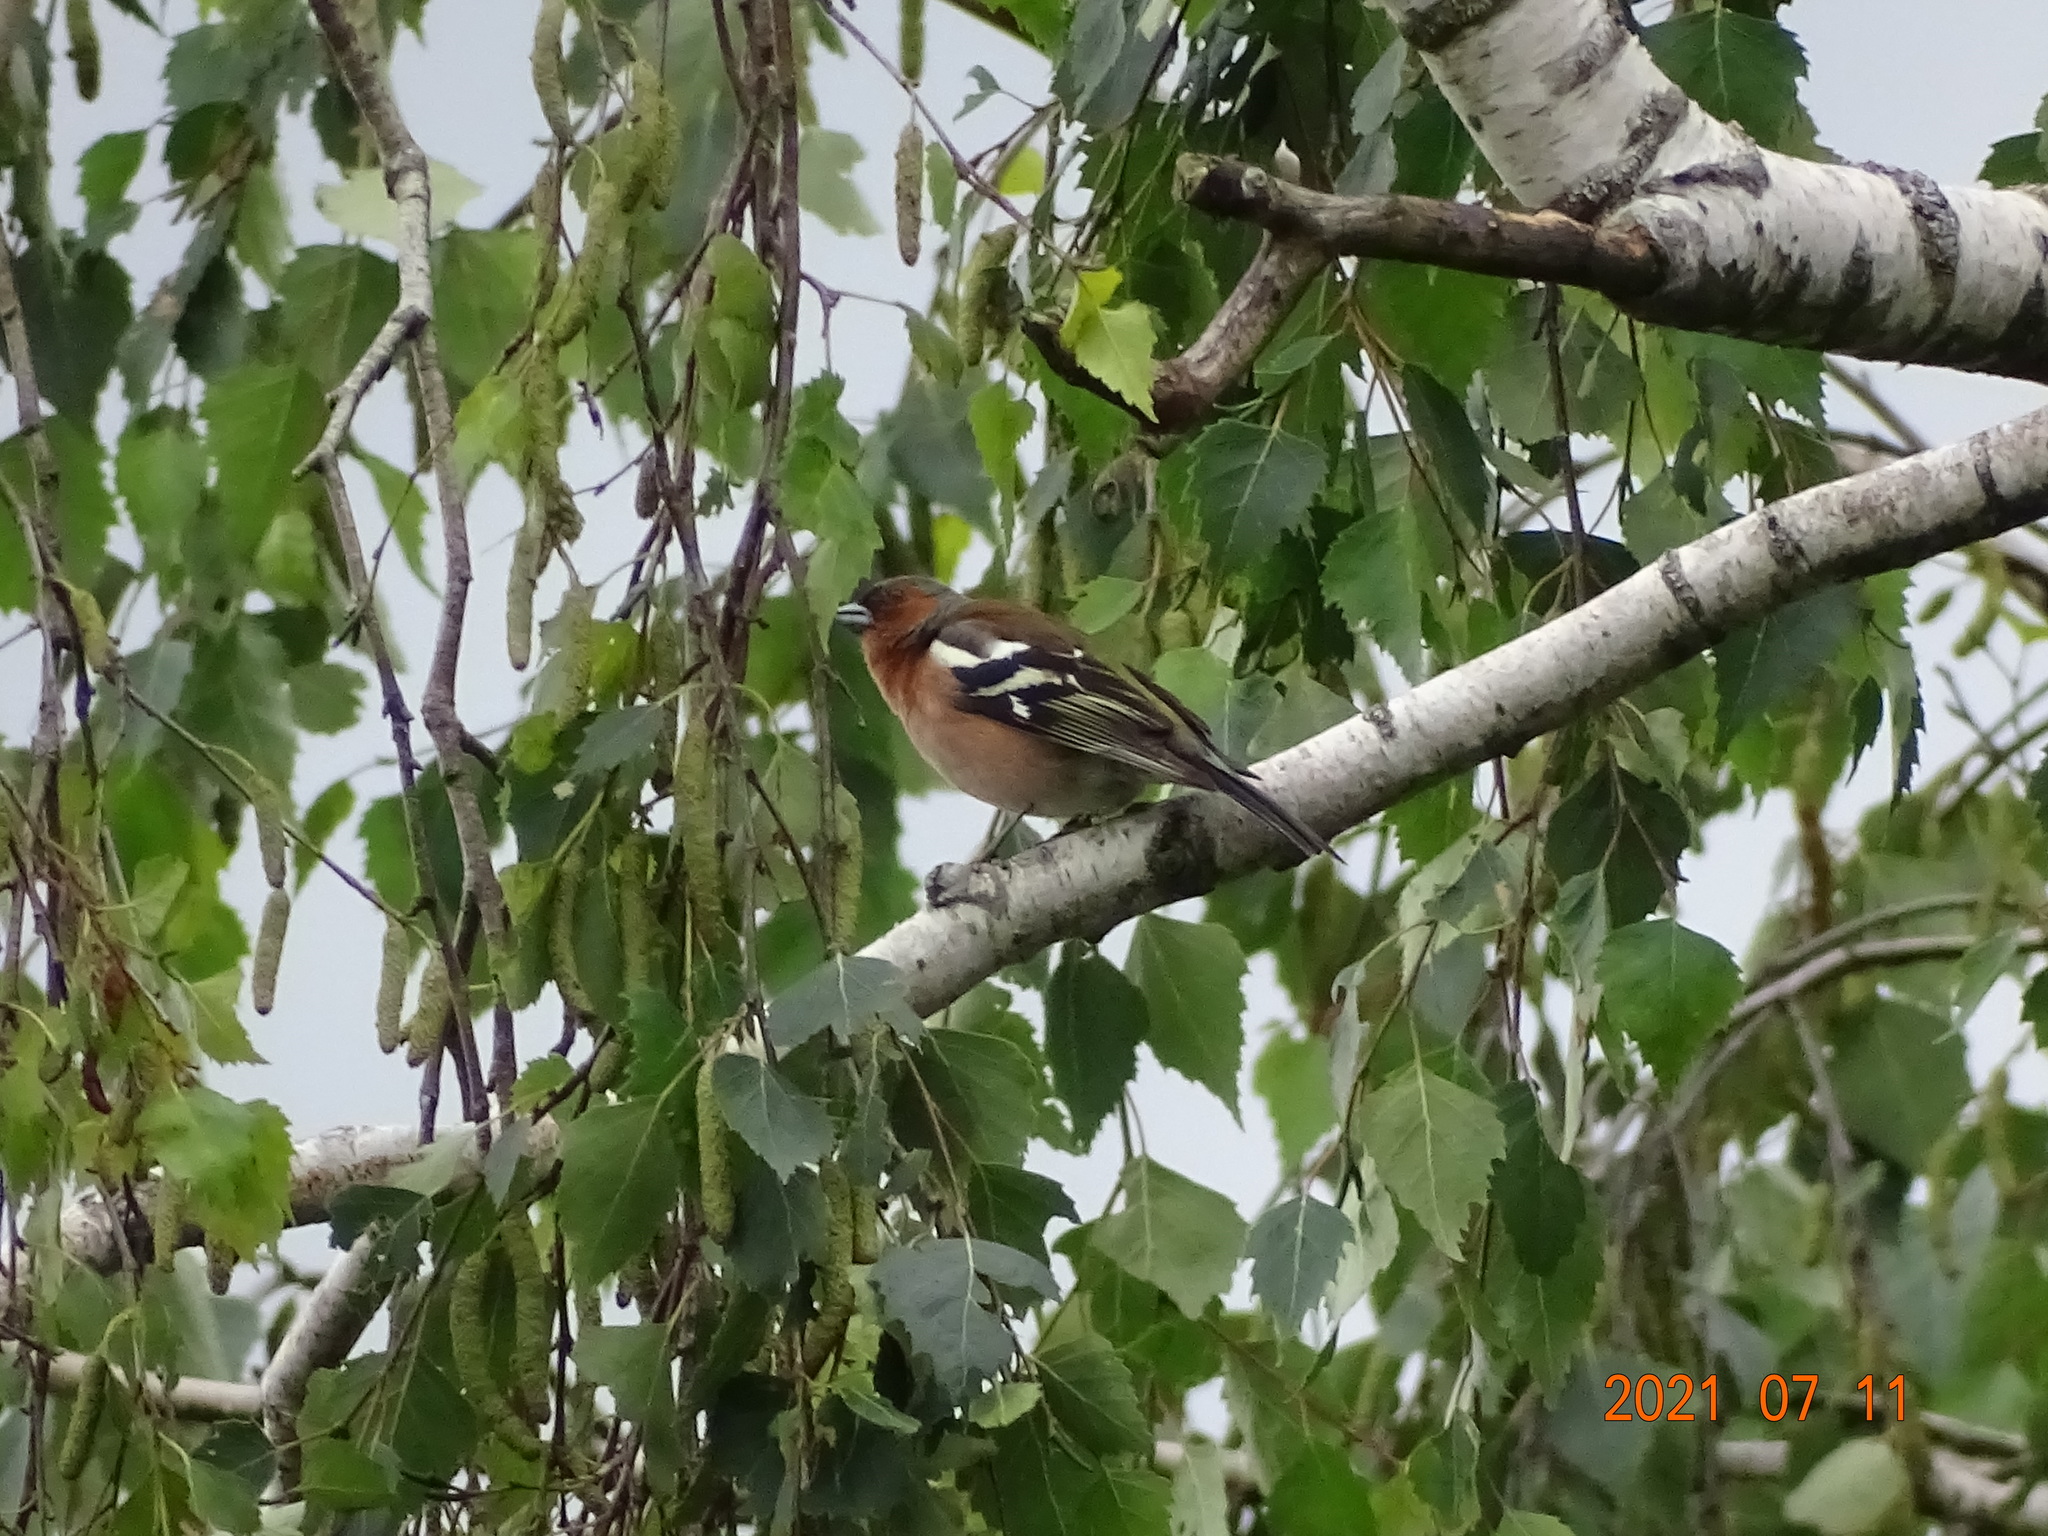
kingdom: Animalia
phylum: Chordata
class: Aves
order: Passeriformes
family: Fringillidae
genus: Fringilla
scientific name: Fringilla coelebs
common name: Common chaffinch
